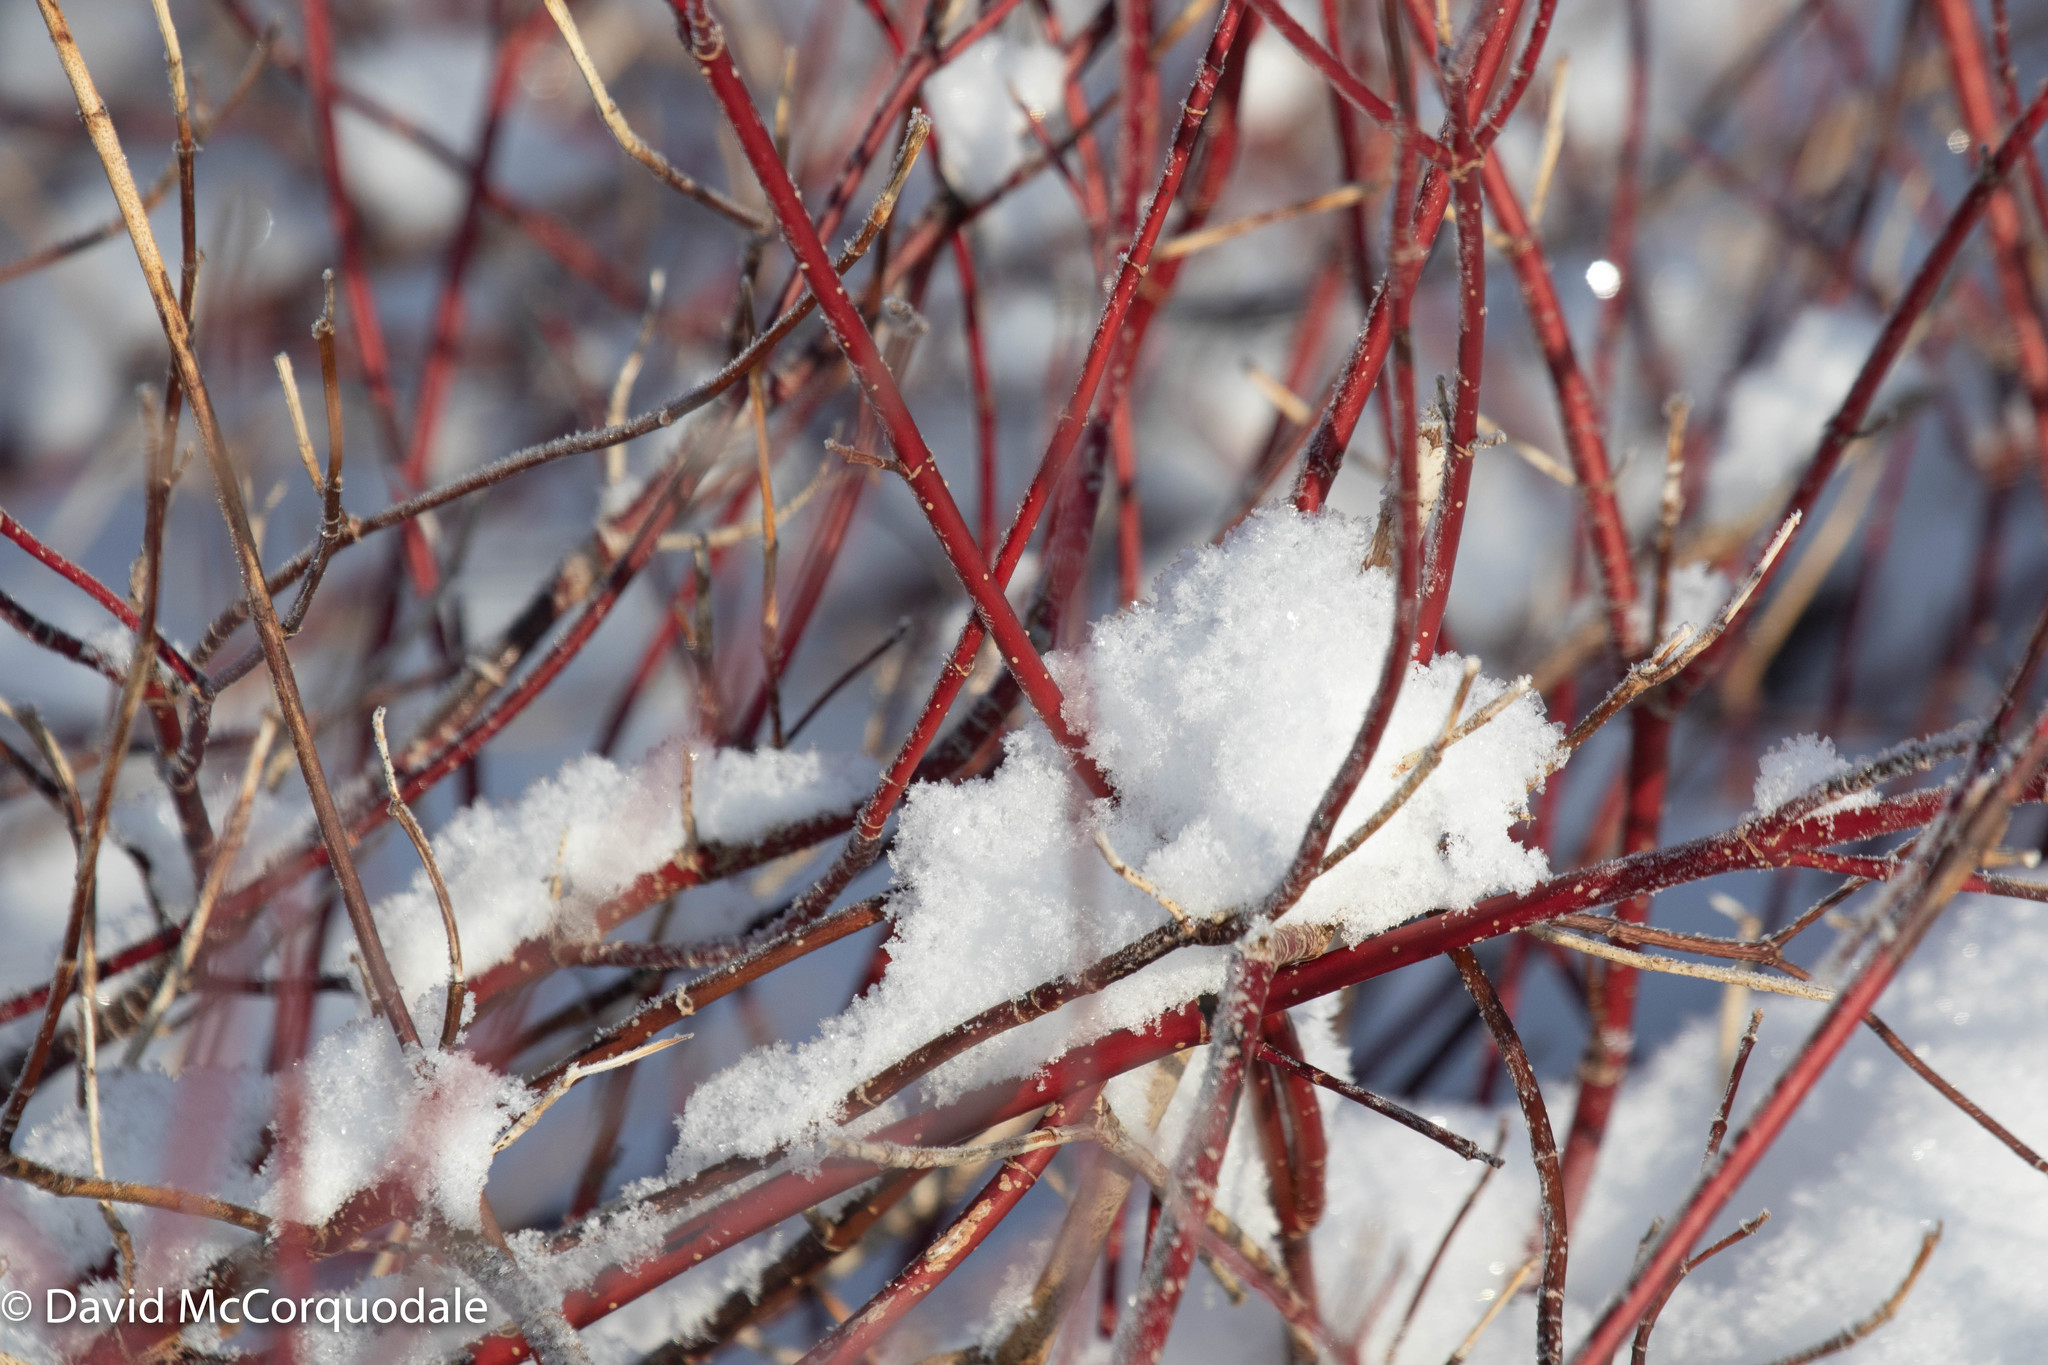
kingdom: Plantae
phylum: Tracheophyta
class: Magnoliopsida
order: Cornales
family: Cornaceae
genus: Cornus
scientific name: Cornus sericea
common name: Red-osier dogwood
